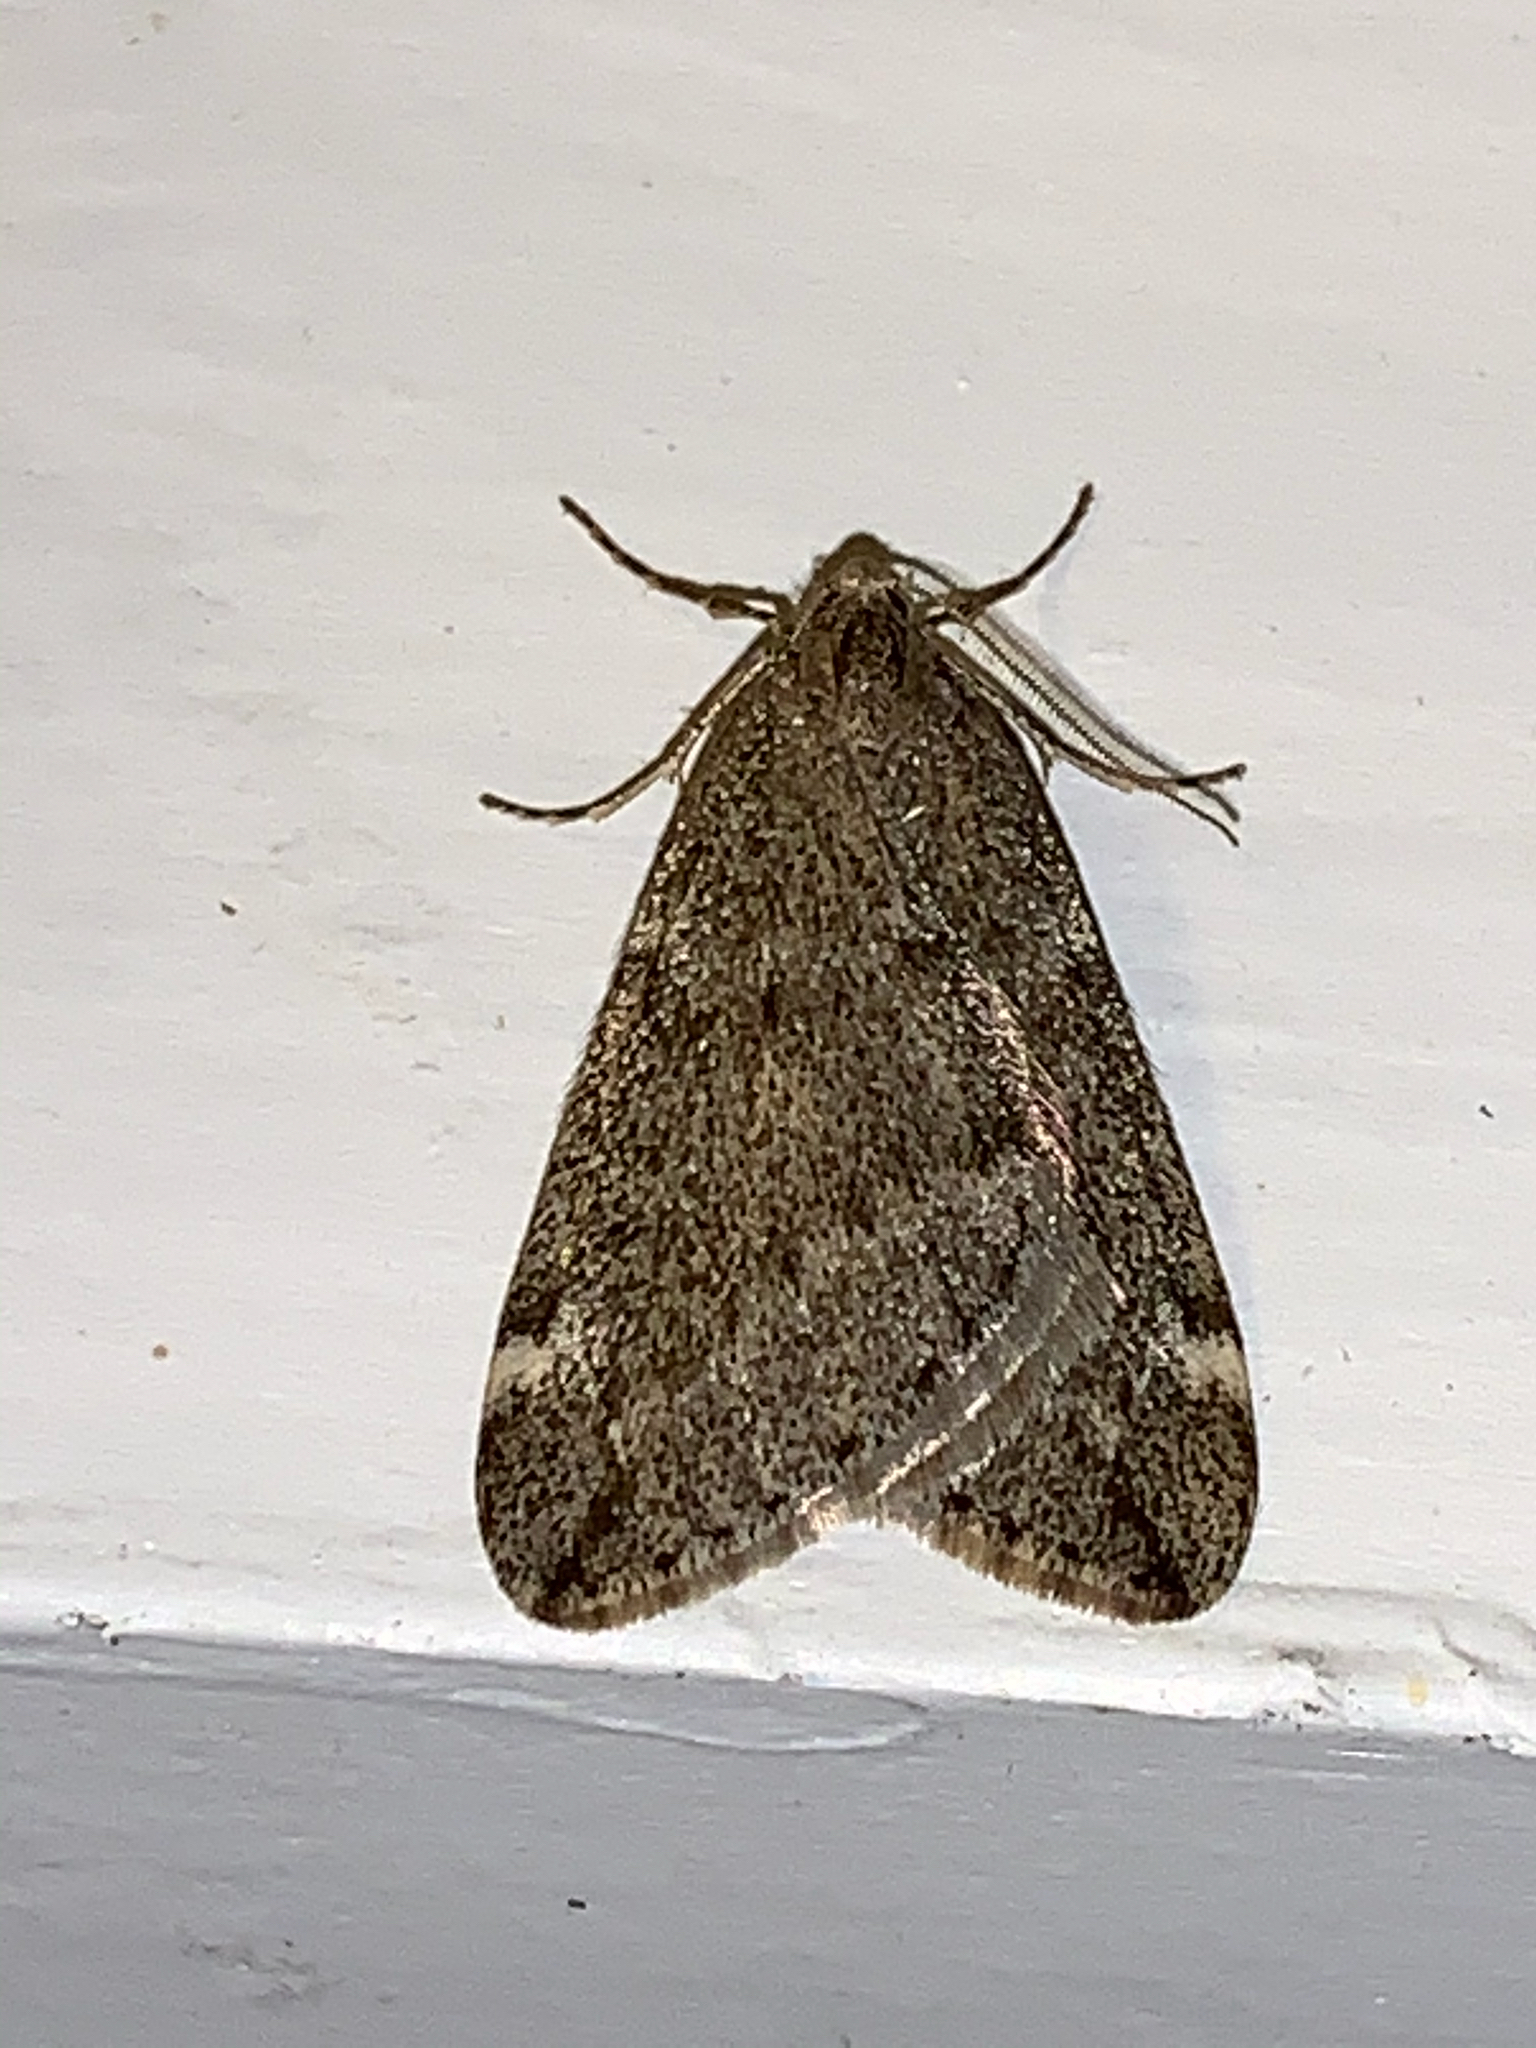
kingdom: Animalia
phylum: Arthropoda
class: Insecta
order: Lepidoptera
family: Geometridae
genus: Alsophila
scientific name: Alsophila pometaria
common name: Fall cankerworm
